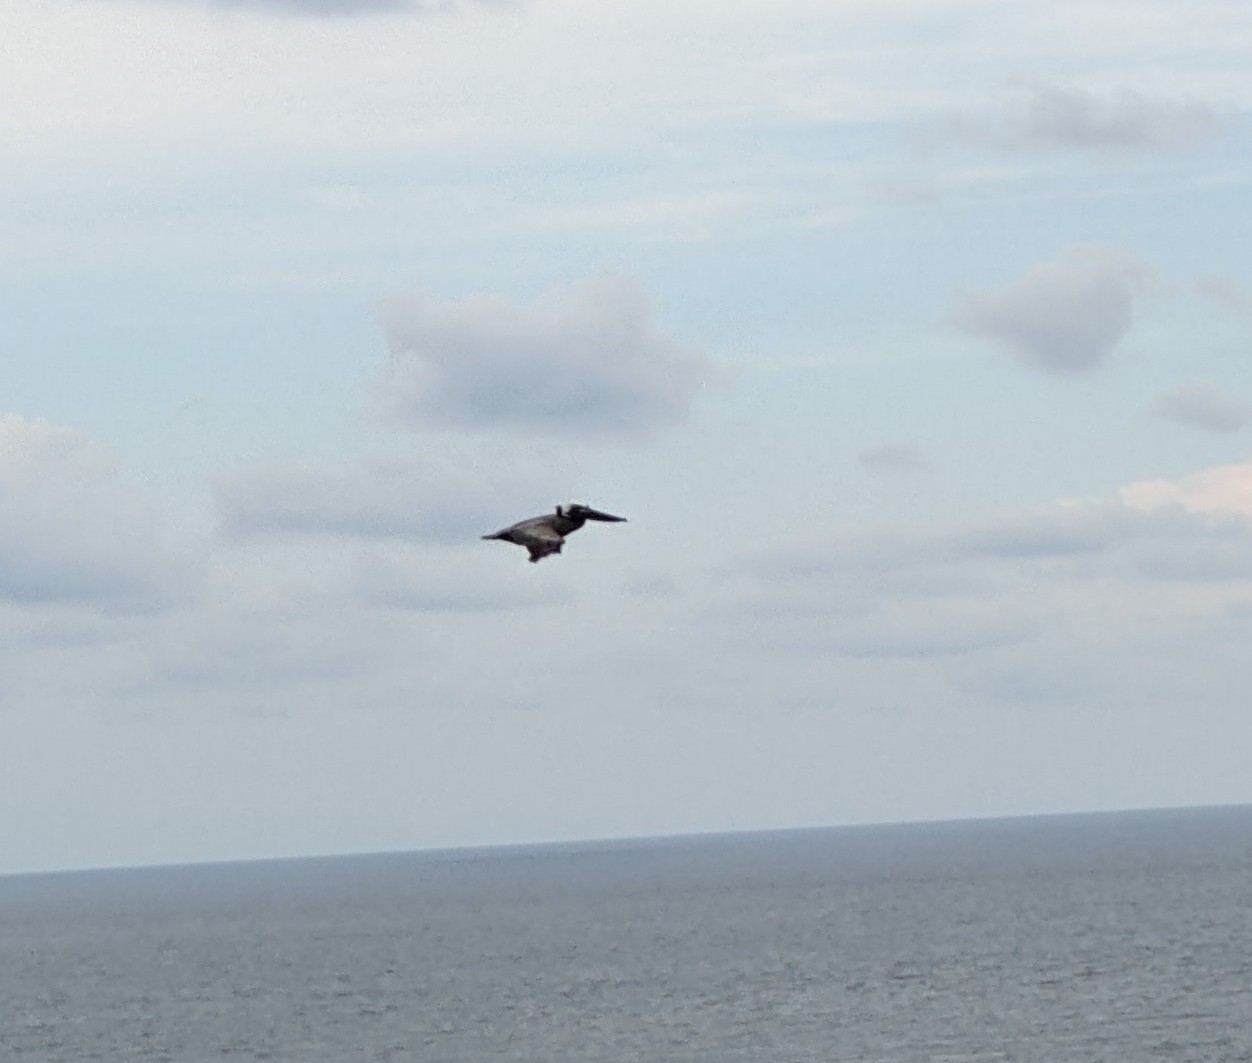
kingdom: Animalia
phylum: Chordata
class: Aves
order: Pelecaniformes
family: Pelecanidae
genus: Pelecanus
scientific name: Pelecanus occidentalis
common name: Brown pelican
